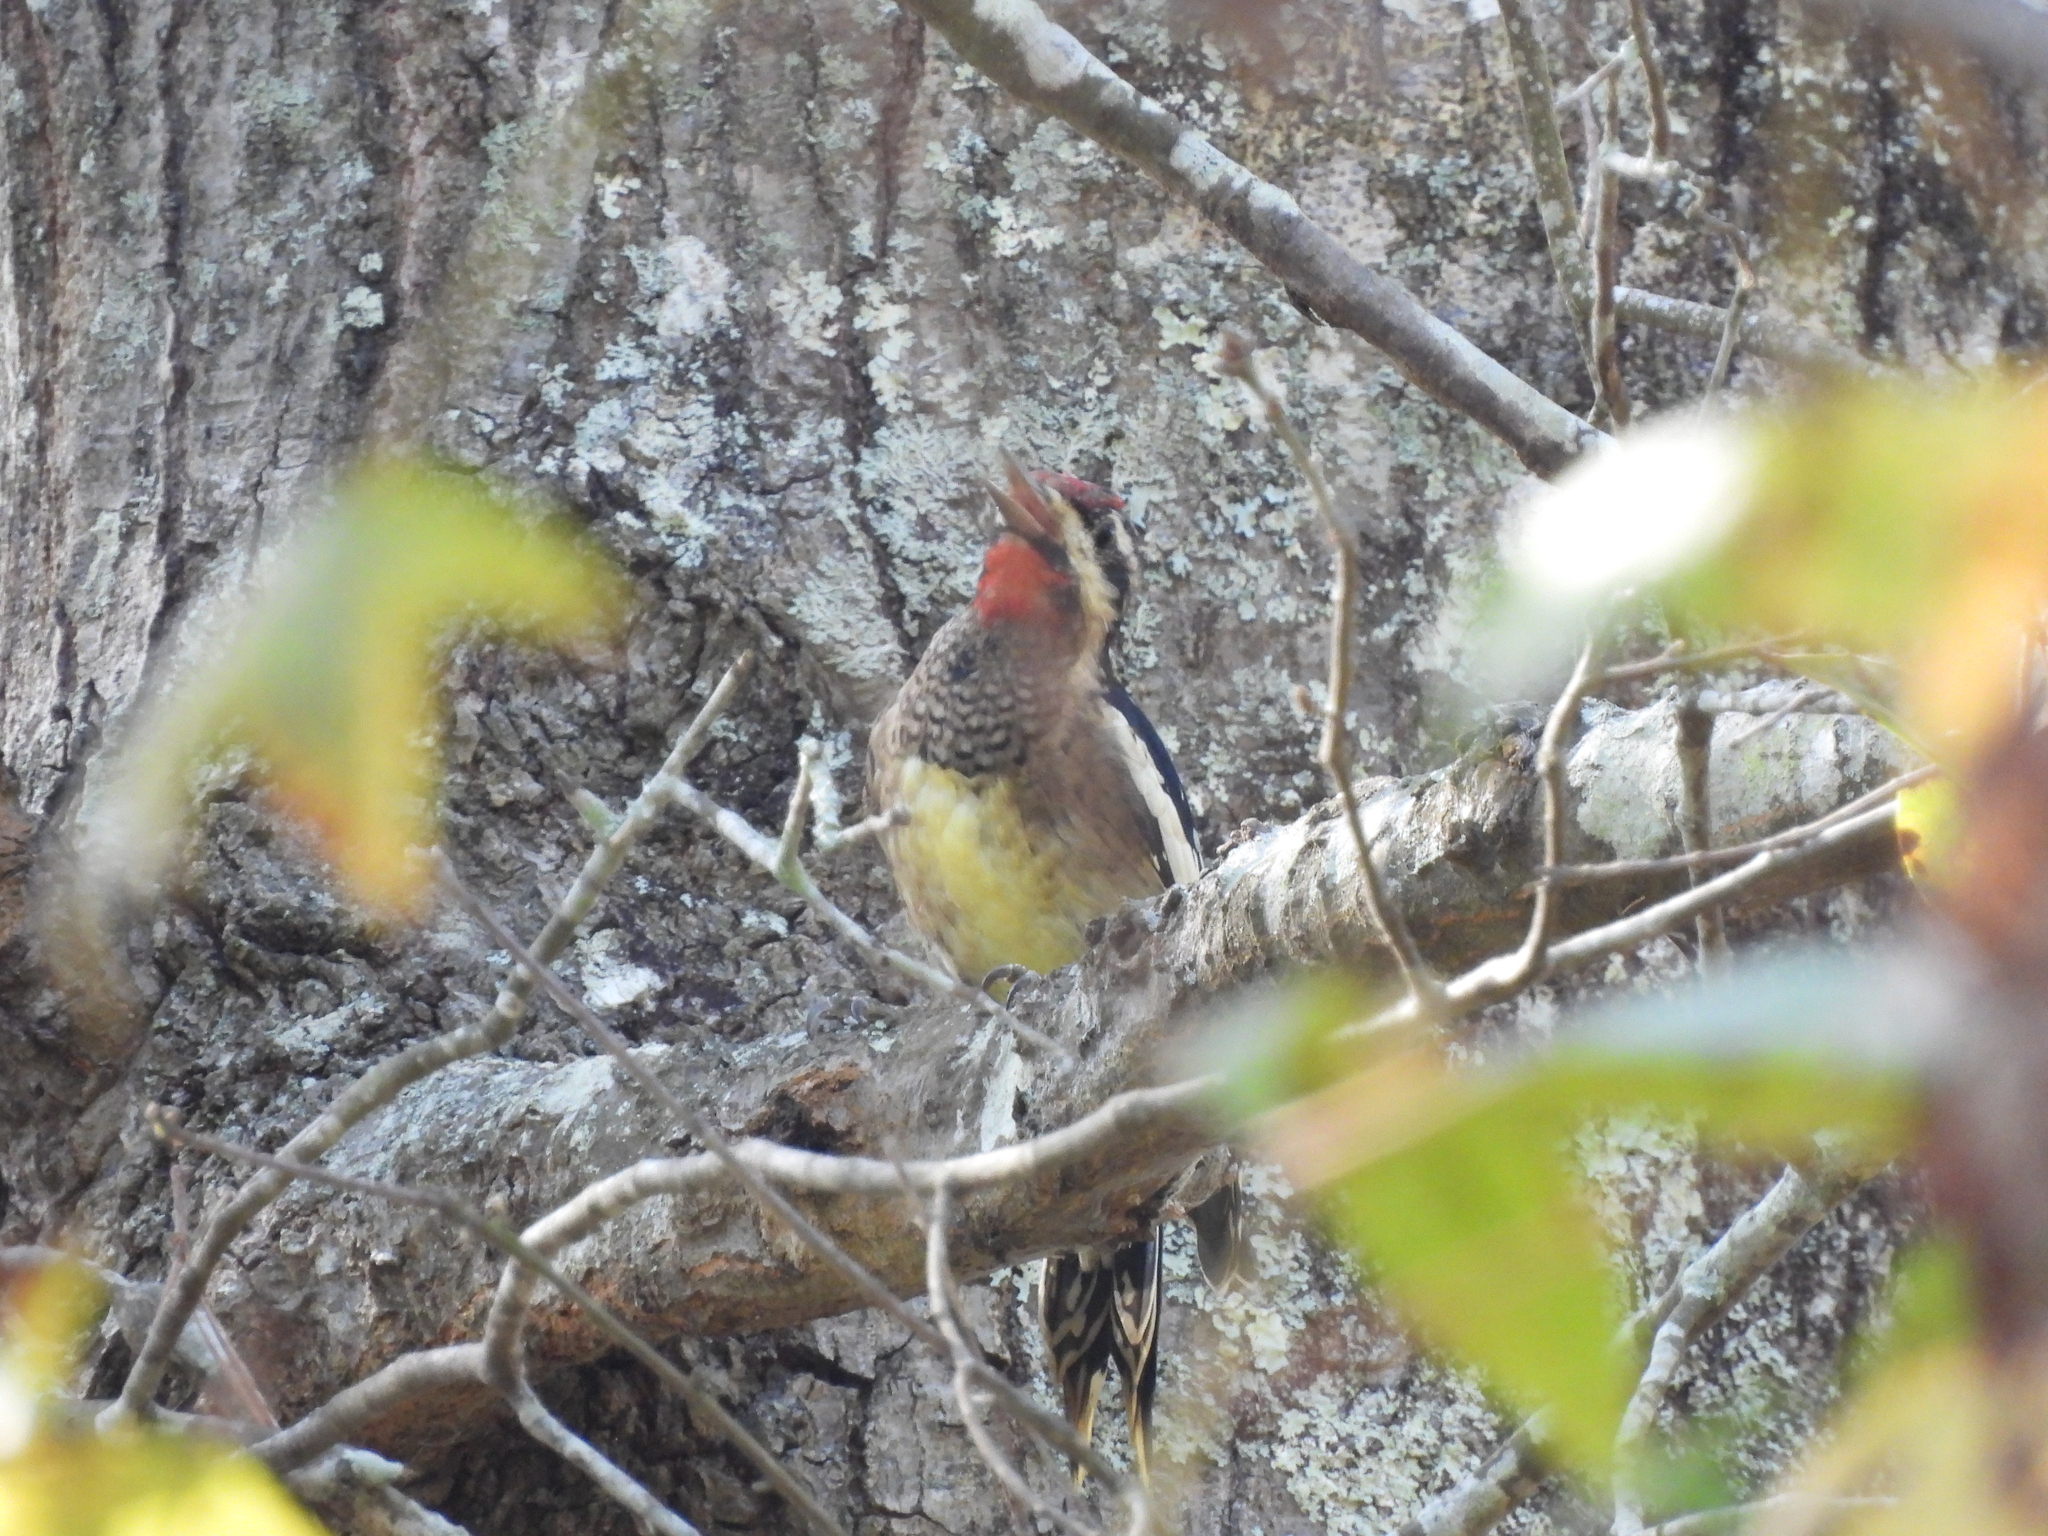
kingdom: Animalia
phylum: Chordata
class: Aves
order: Piciformes
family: Picidae
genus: Sphyrapicus
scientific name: Sphyrapicus varius
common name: Yellow-bellied sapsucker
